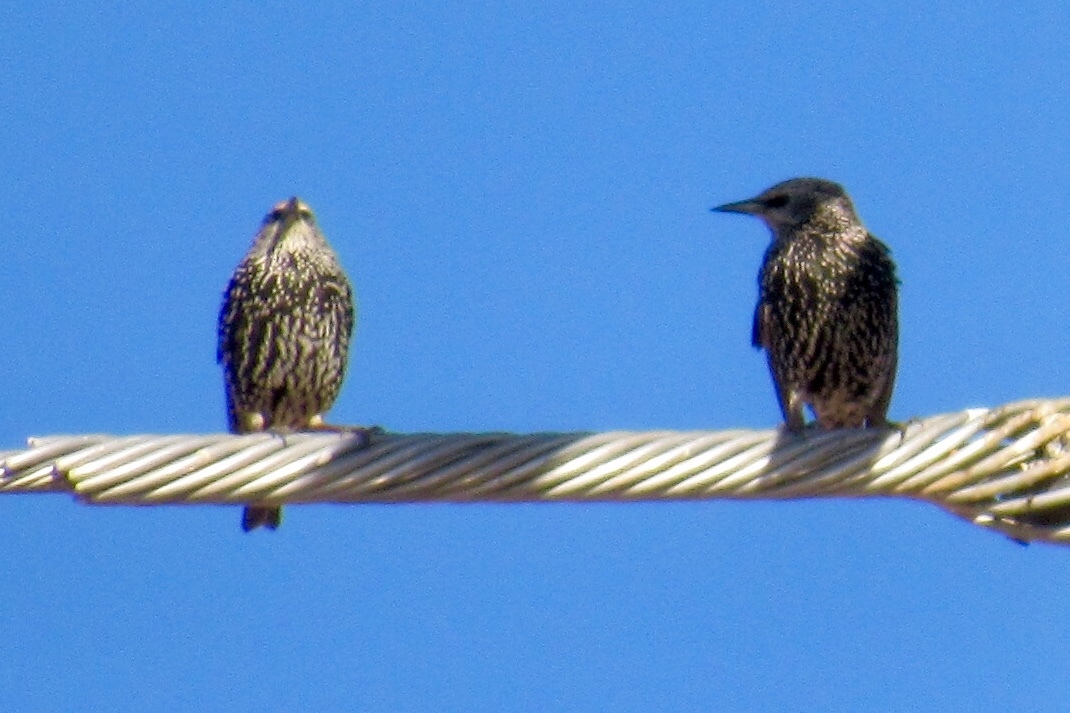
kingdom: Animalia
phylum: Chordata
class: Aves
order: Passeriformes
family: Sturnidae
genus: Sturnus
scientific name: Sturnus vulgaris
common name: Common starling
